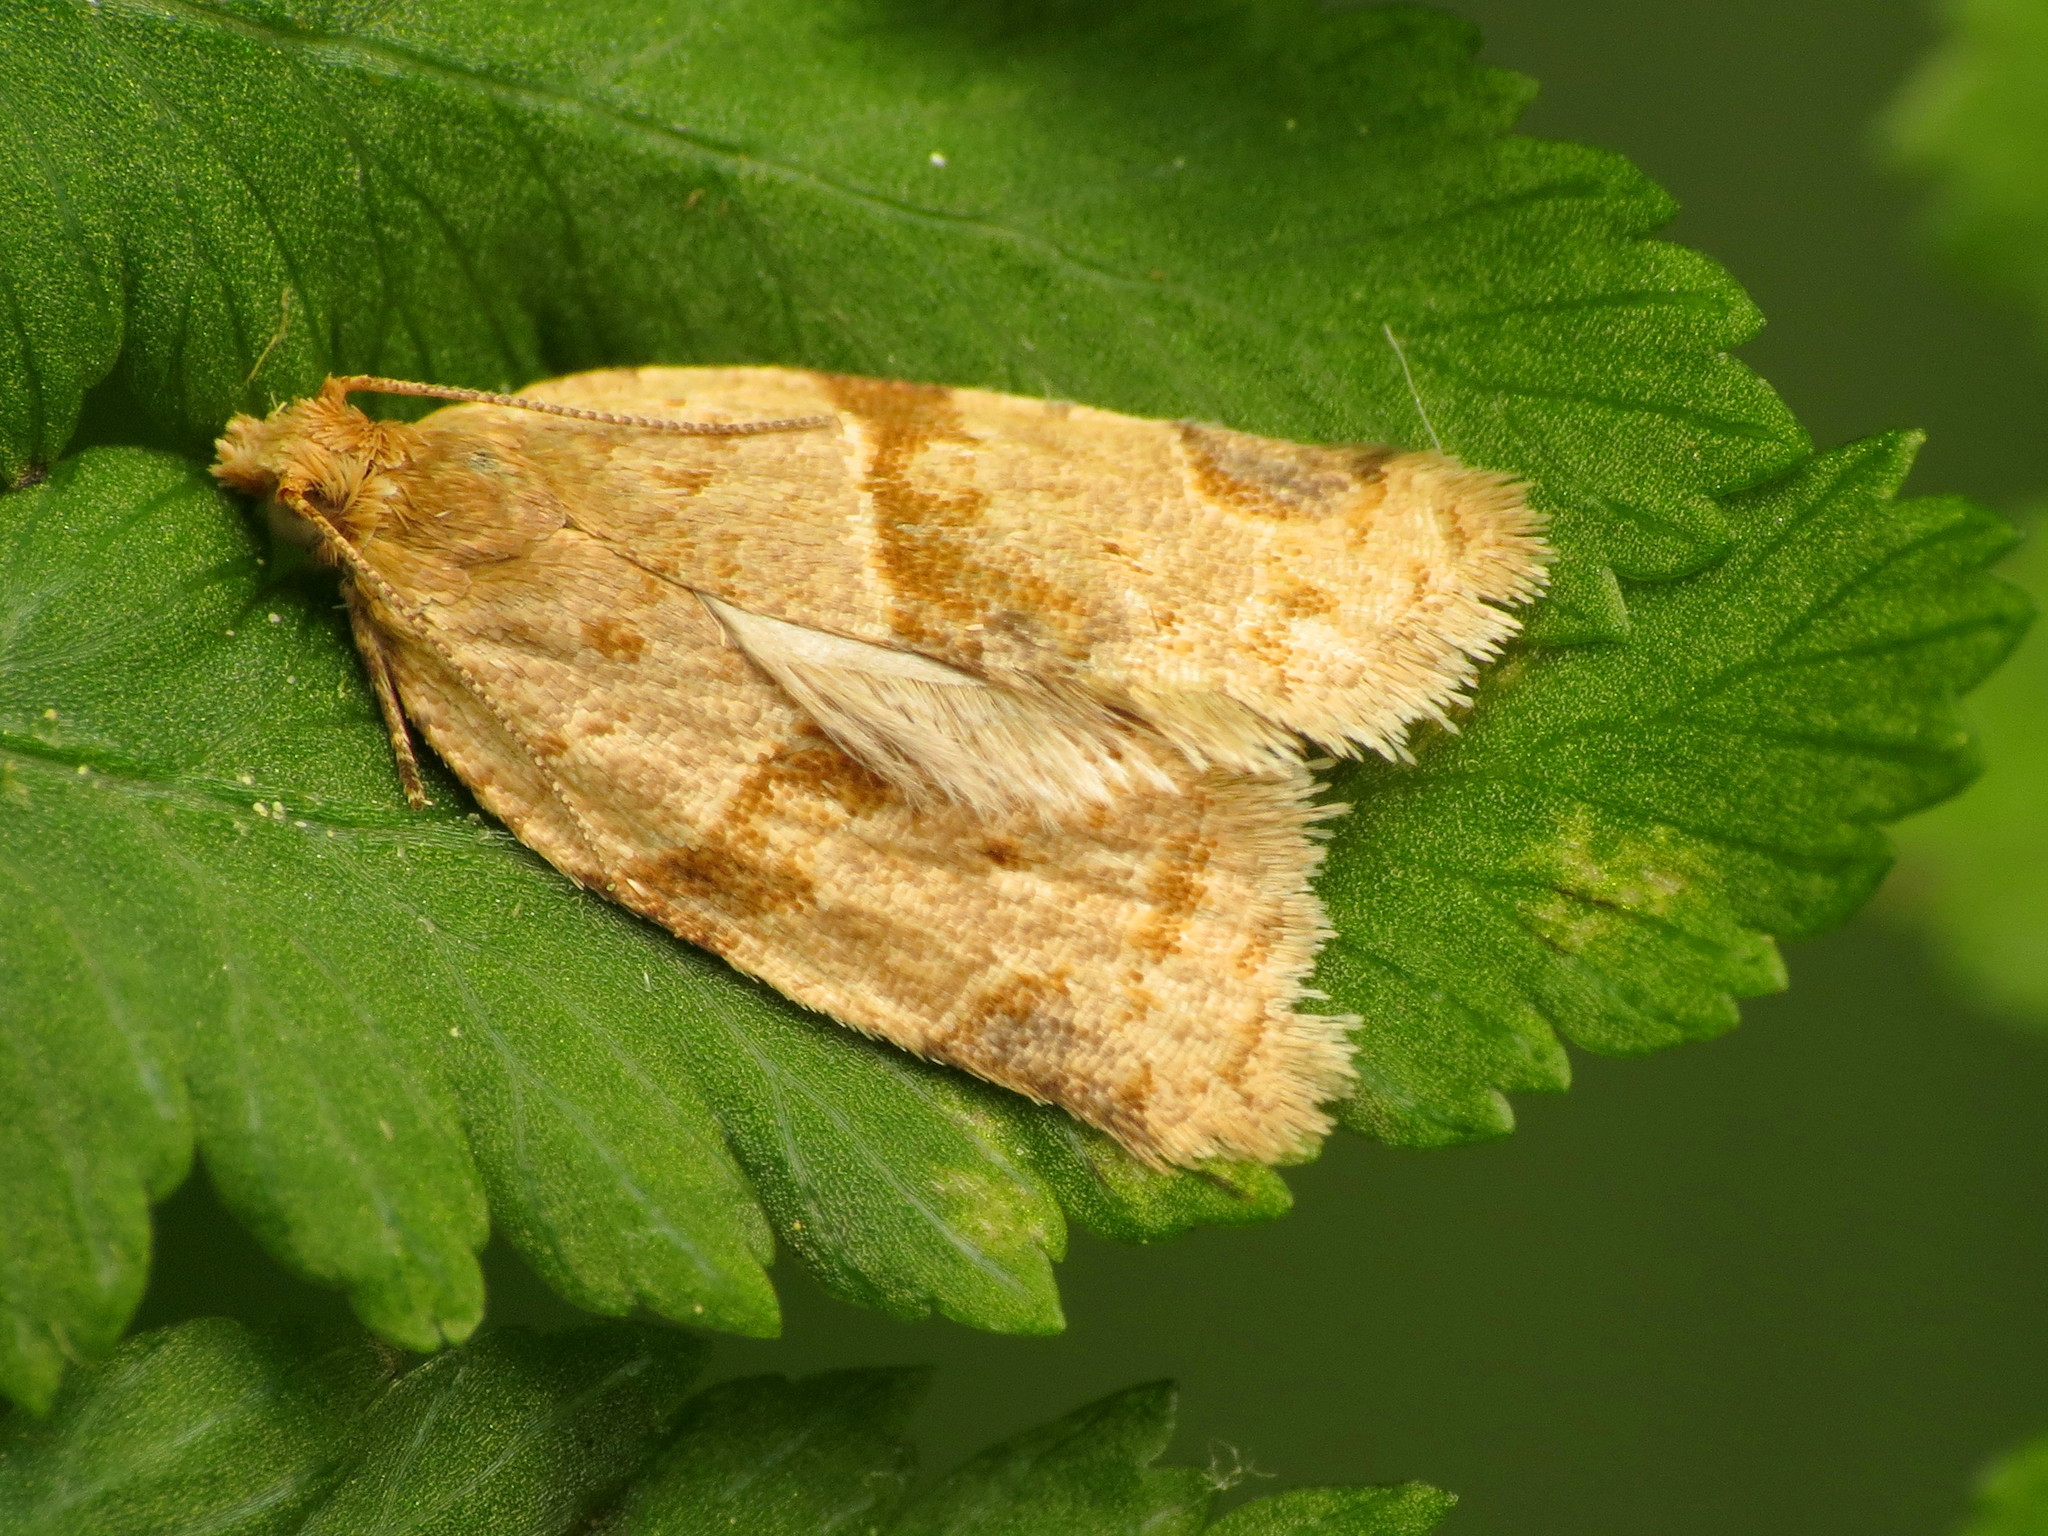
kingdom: Animalia
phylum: Arthropoda
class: Insecta
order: Lepidoptera
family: Tortricidae
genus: Clepsis
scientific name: Clepsis peritana
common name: Garden tortrix
